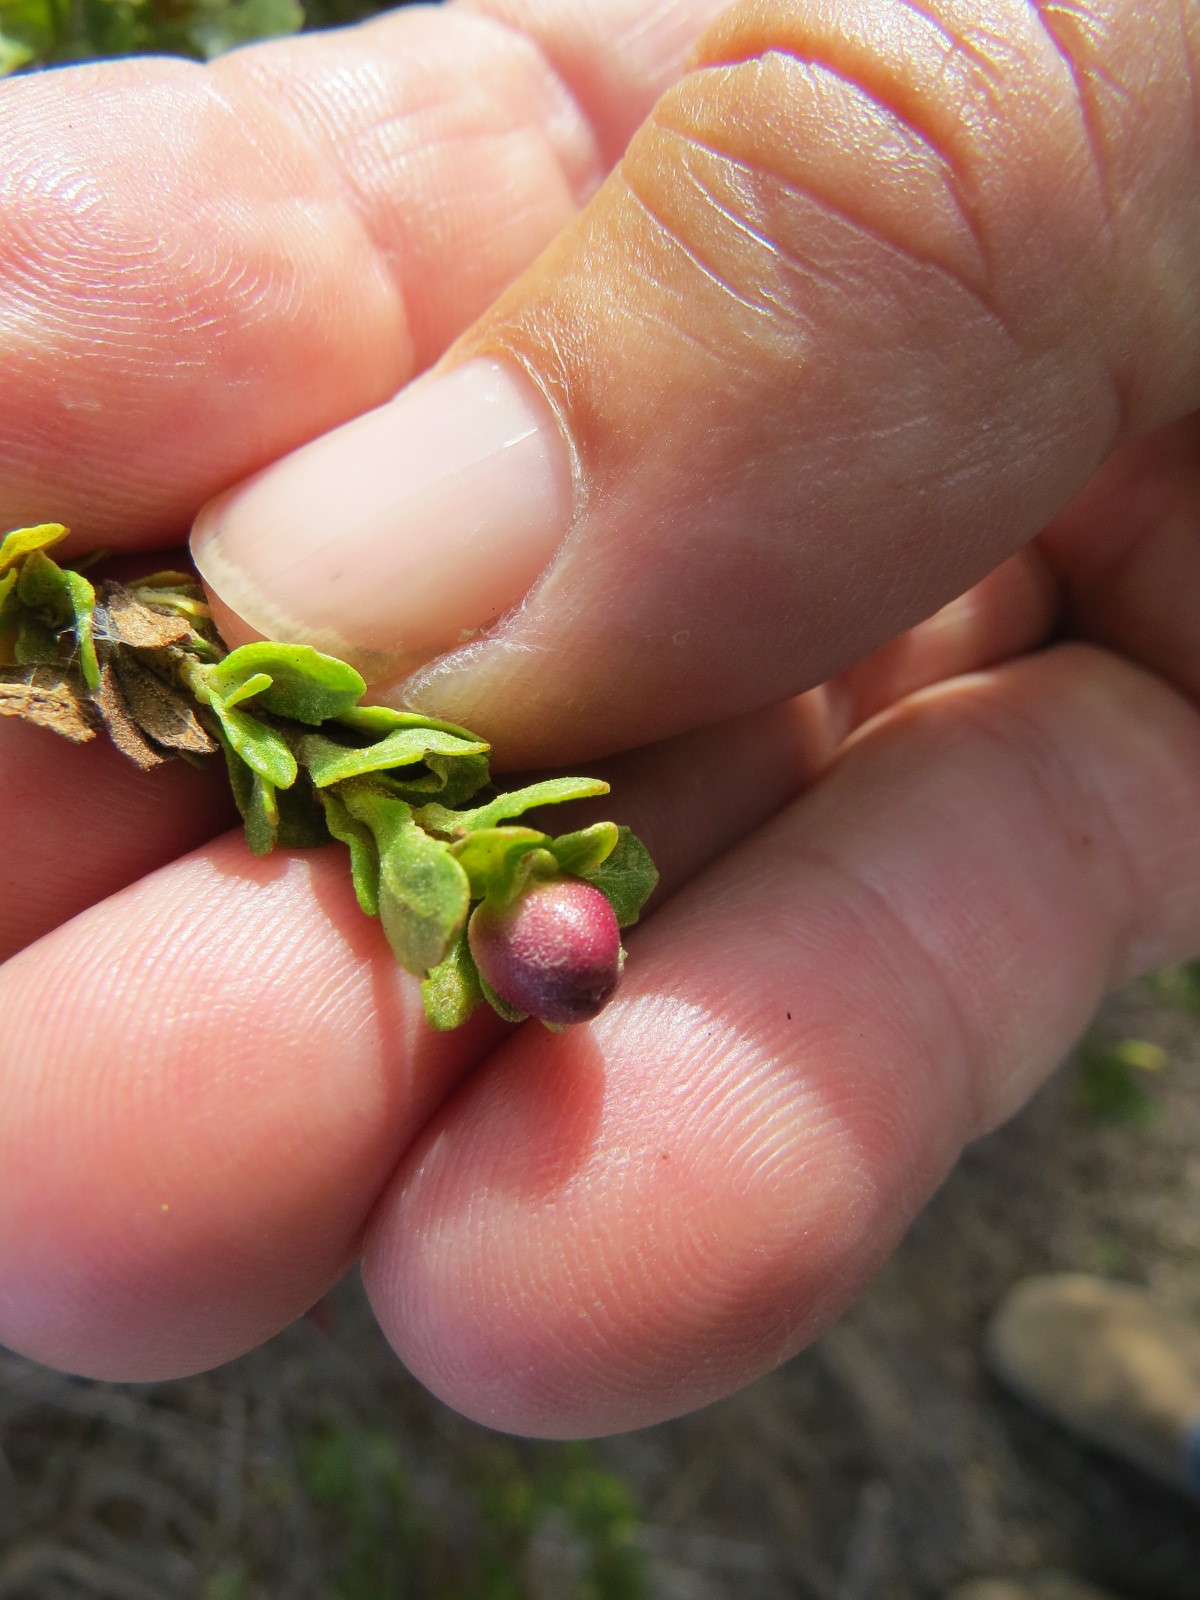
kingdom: Animalia
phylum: Arthropoda
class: Insecta
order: Diptera
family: Cecidomyiidae
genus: Rhopalomyia
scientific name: Rhopalomyia californica
